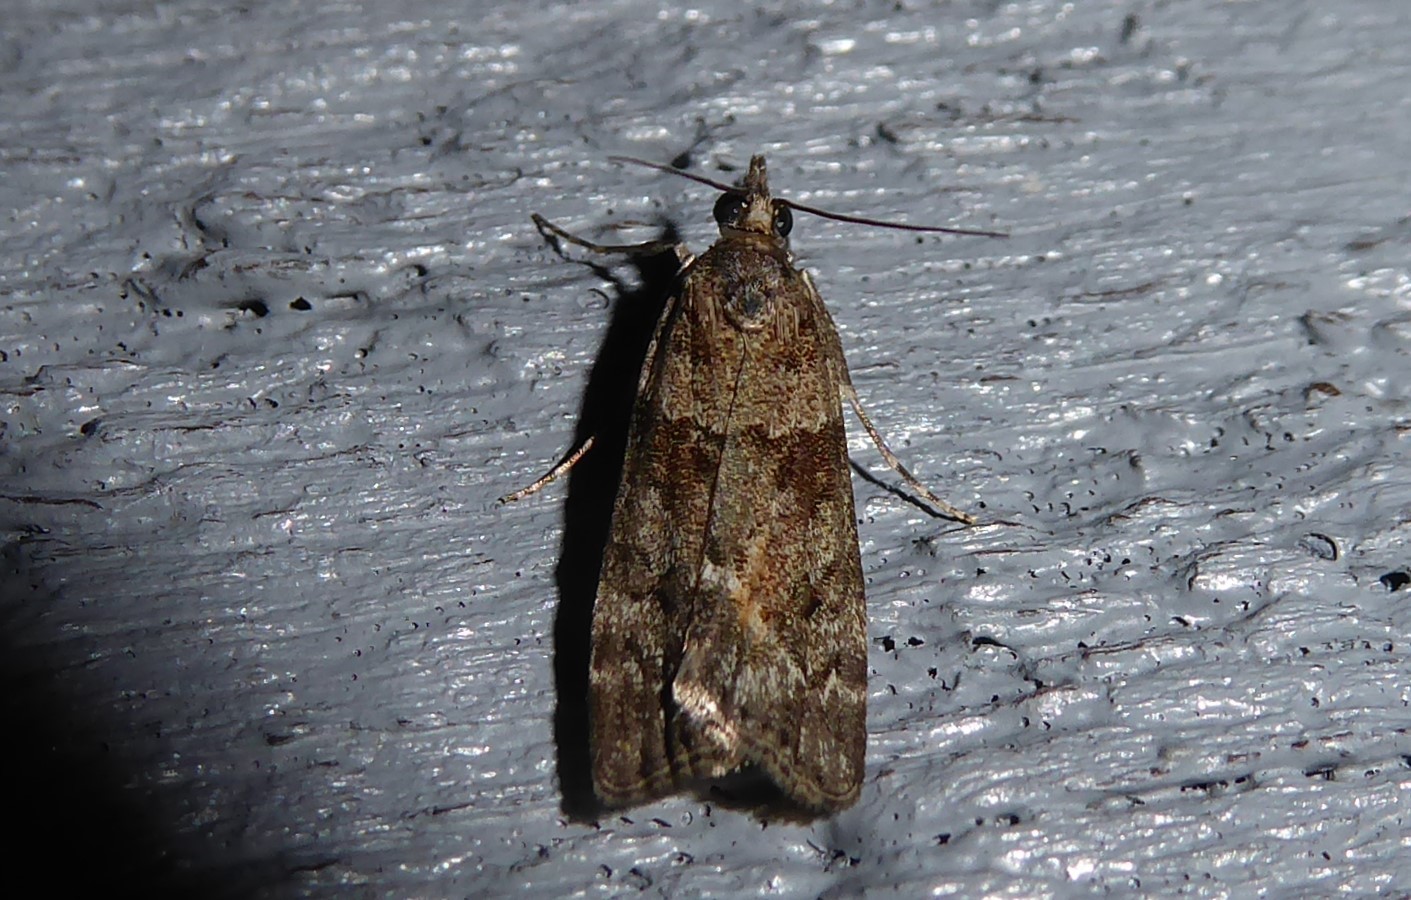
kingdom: Animalia
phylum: Arthropoda
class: Insecta
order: Lepidoptera
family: Crambidae
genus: Eudonia
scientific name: Eudonia submarginalis
